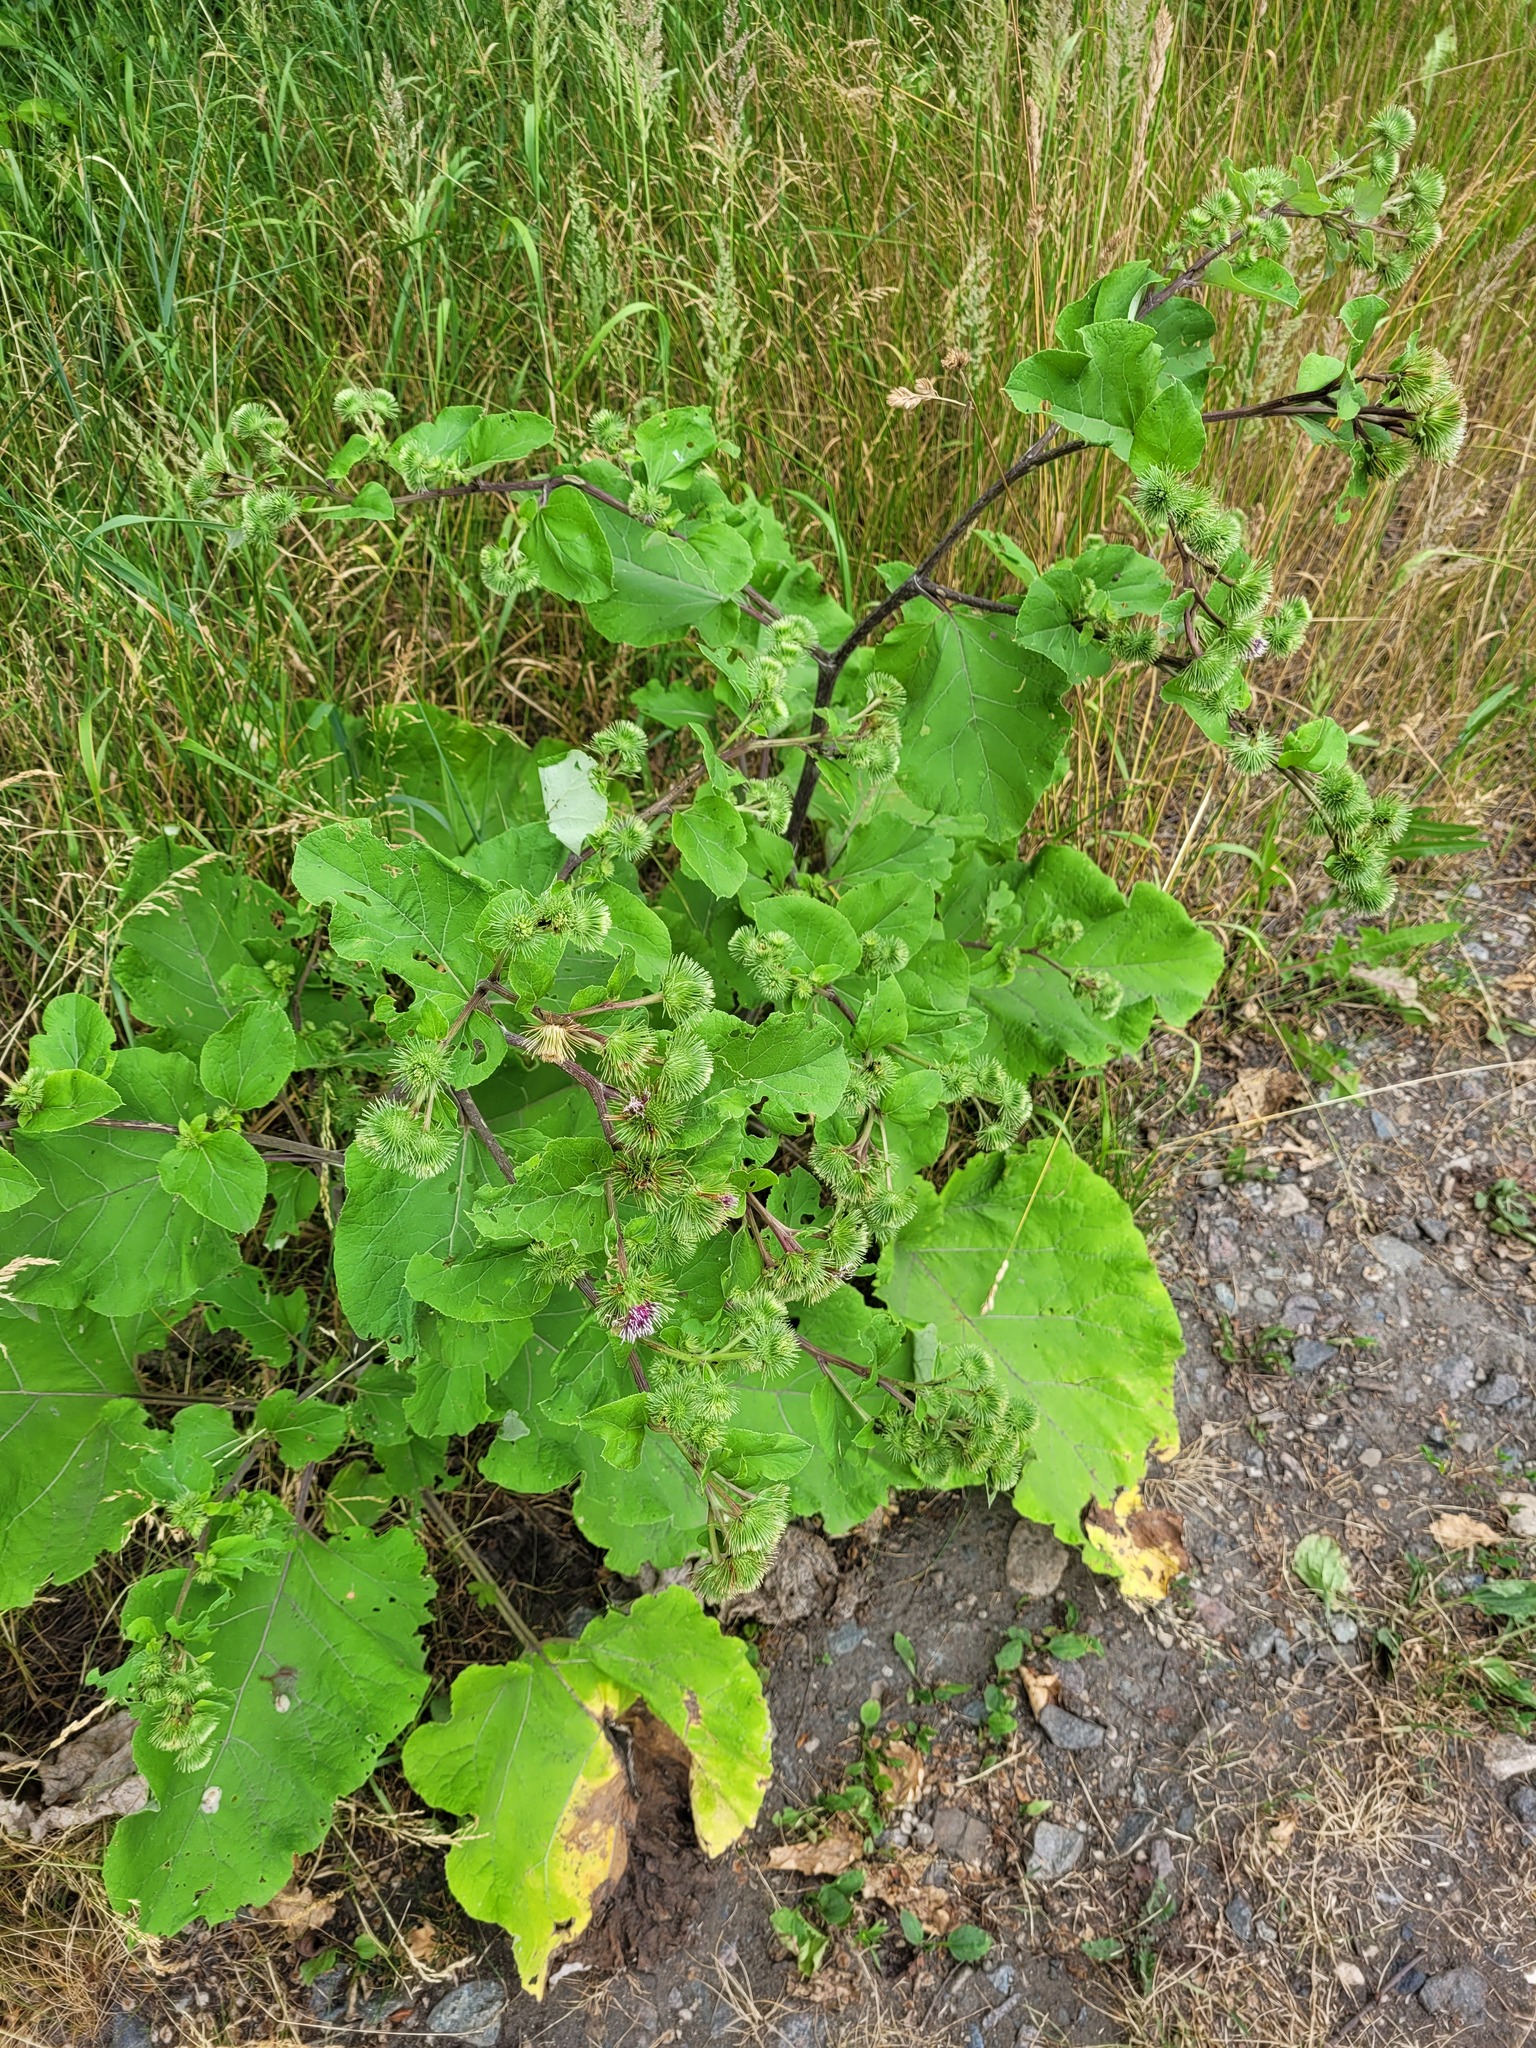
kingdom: Plantae
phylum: Tracheophyta
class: Magnoliopsida
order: Asterales
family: Asteraceae
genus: Arctium
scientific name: Arctium minus
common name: Lesser burdock
